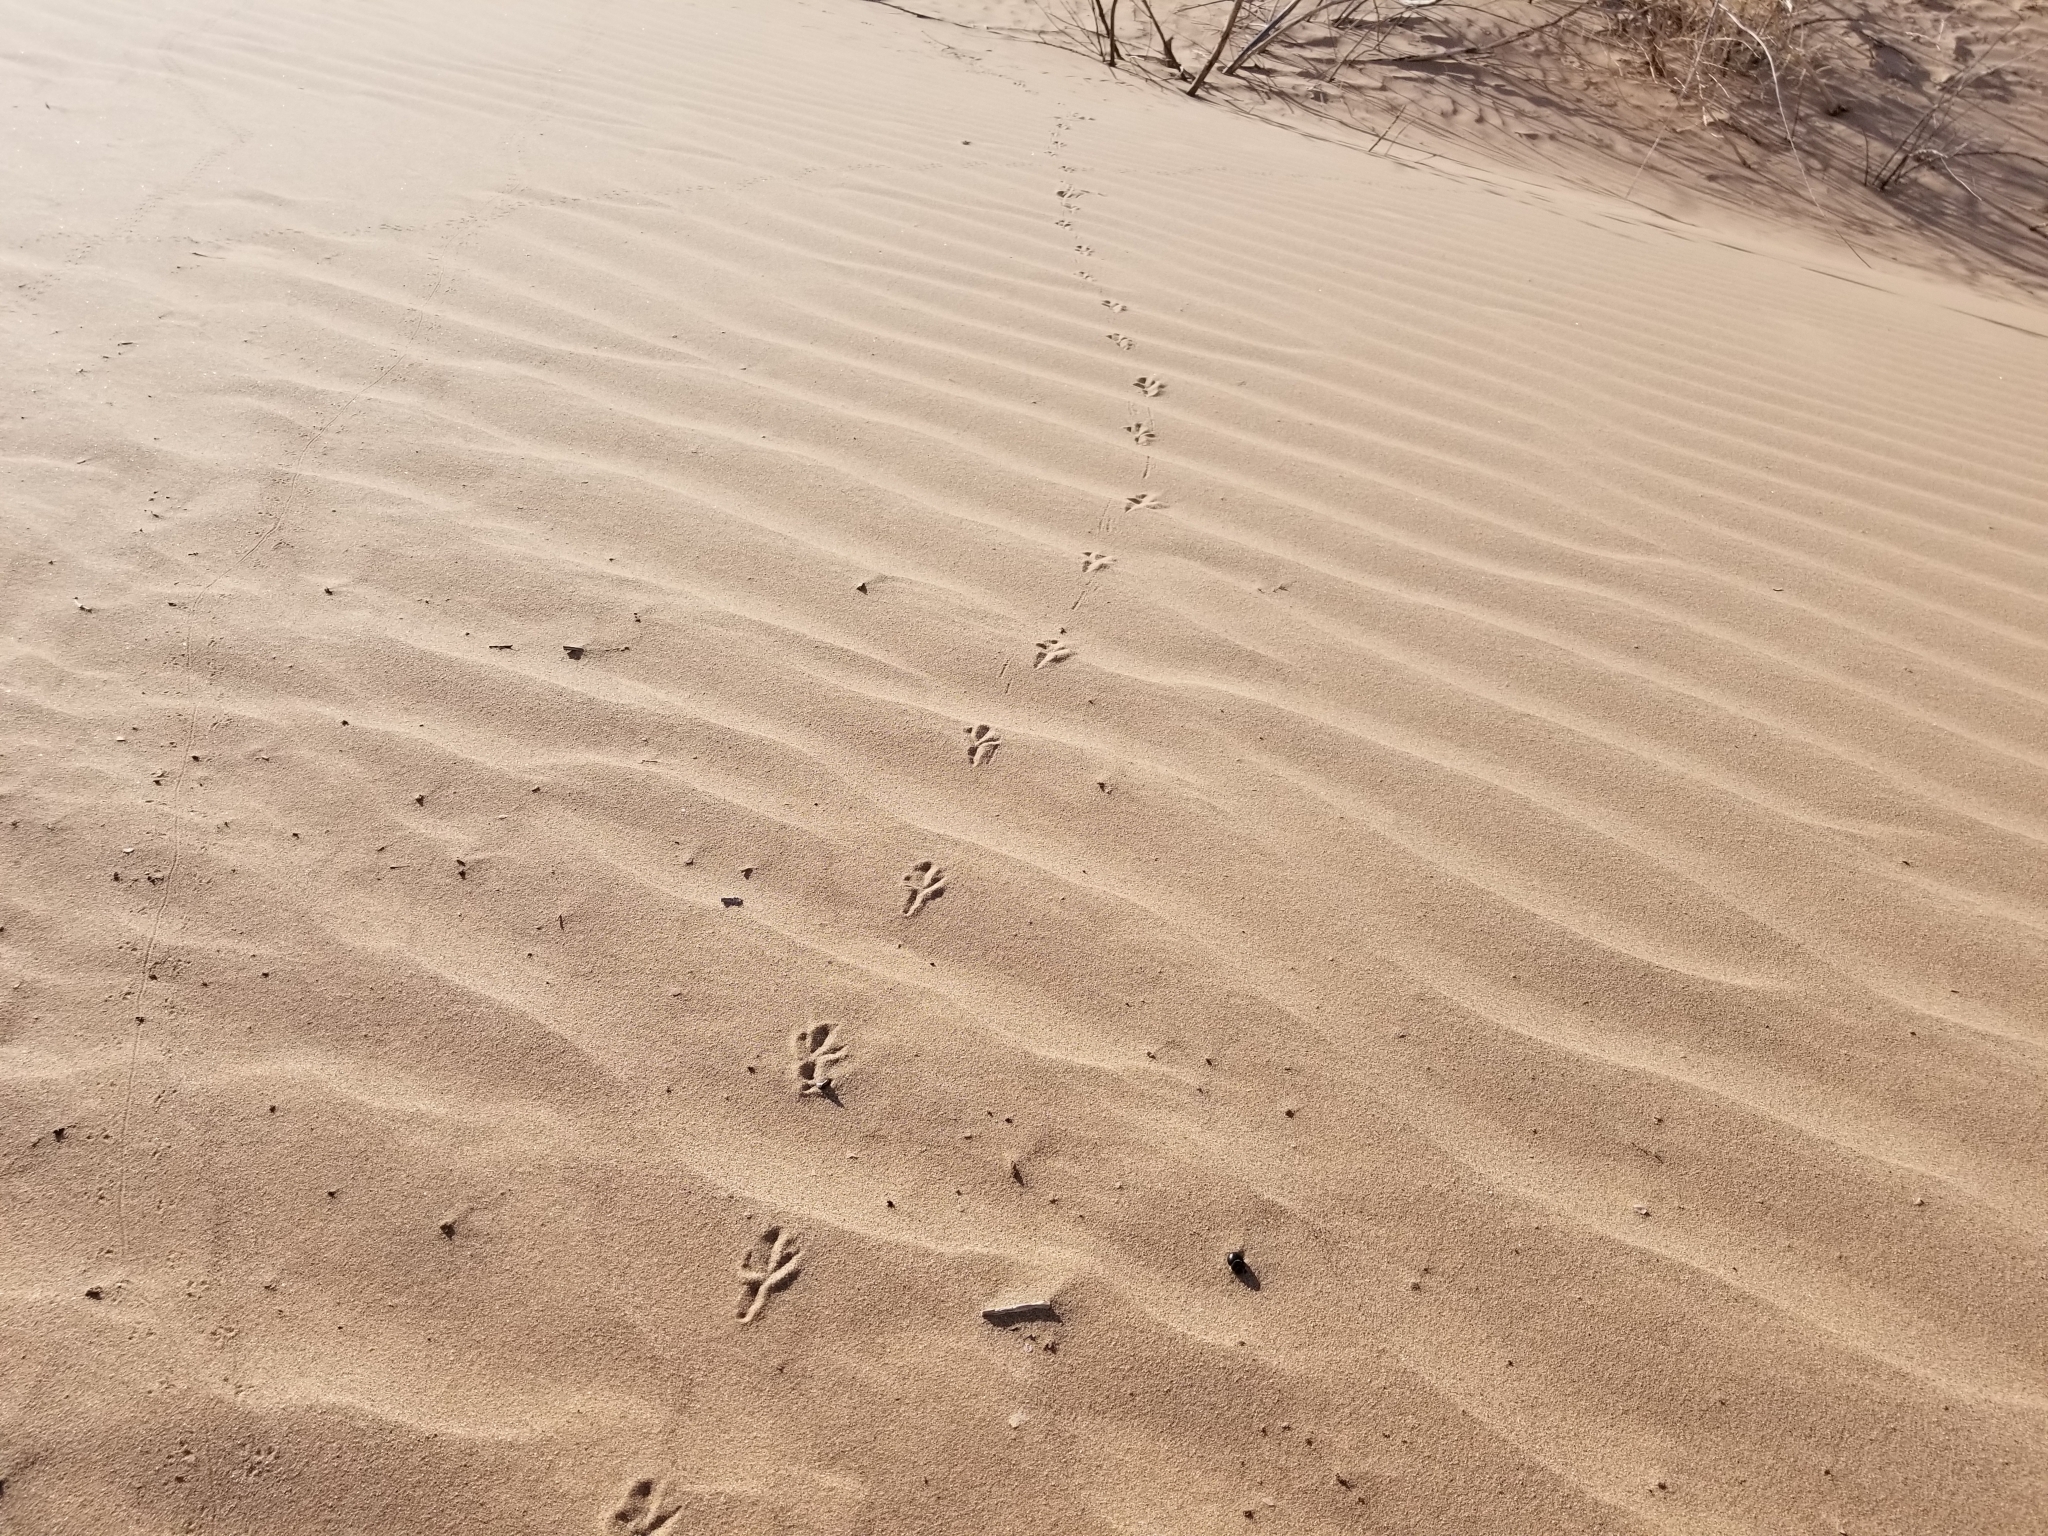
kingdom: Animalia
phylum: Chordata
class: Aves
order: Passeriformes
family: Mimidae
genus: Toxostoma
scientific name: Toxostoma lecontei
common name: Le conte's thrasher
